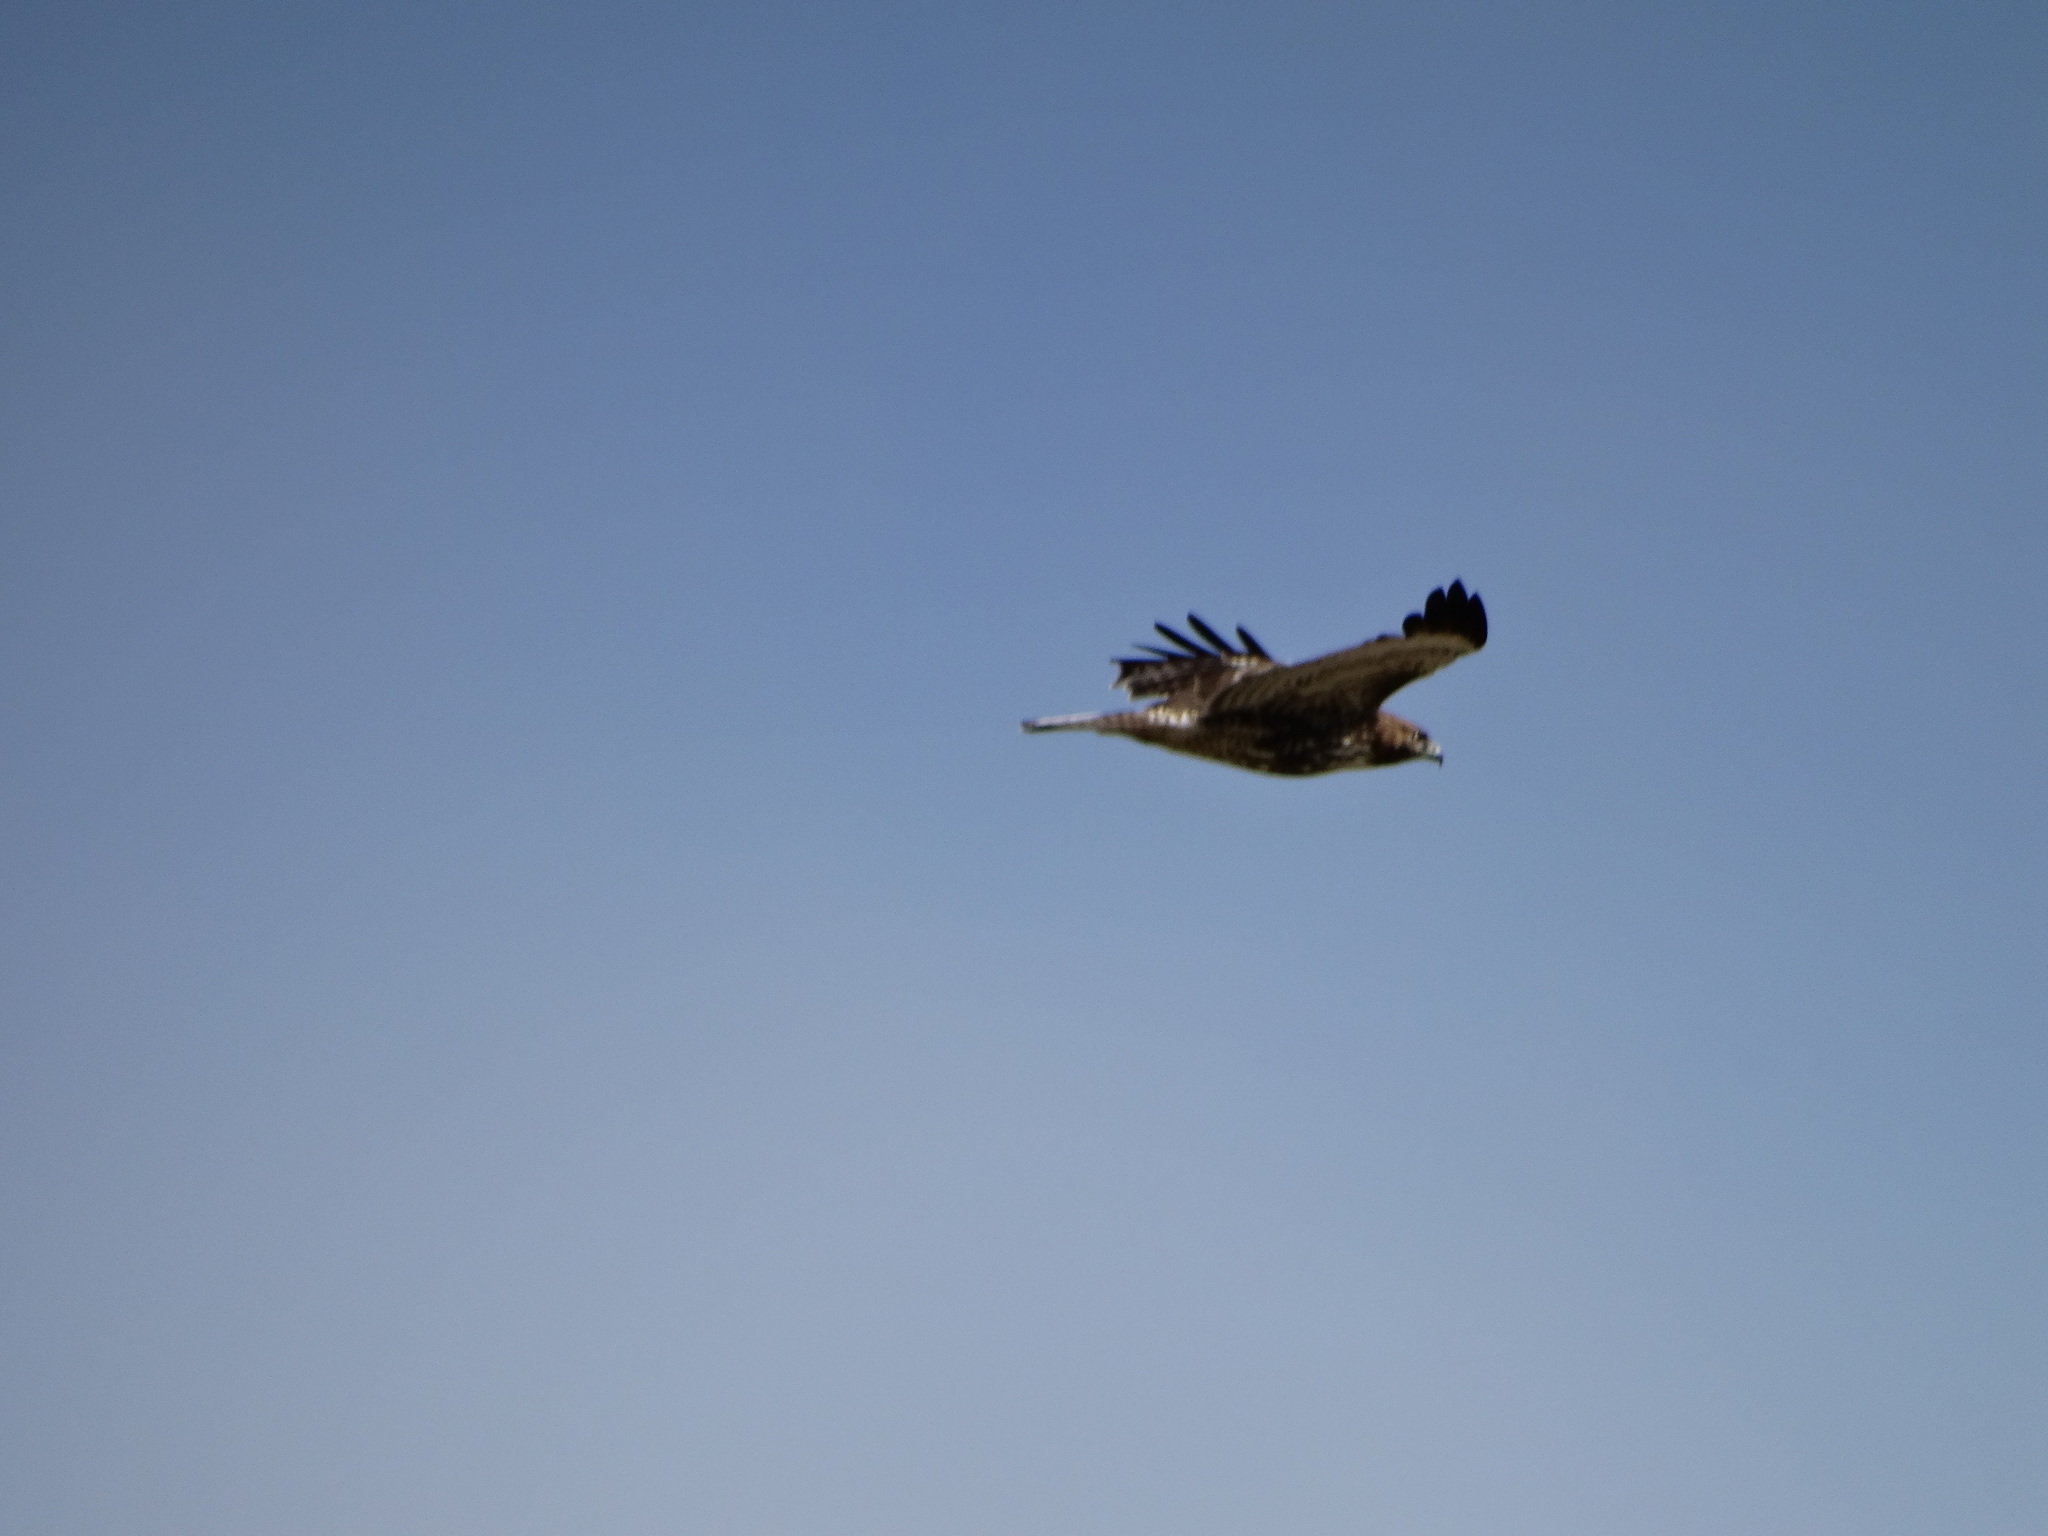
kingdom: Animalia
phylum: Chordata
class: Aves
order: Accipitriformes
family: Accipitridae
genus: Buteo
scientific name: Buteo jamaicensis
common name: Red-tailed hawk
